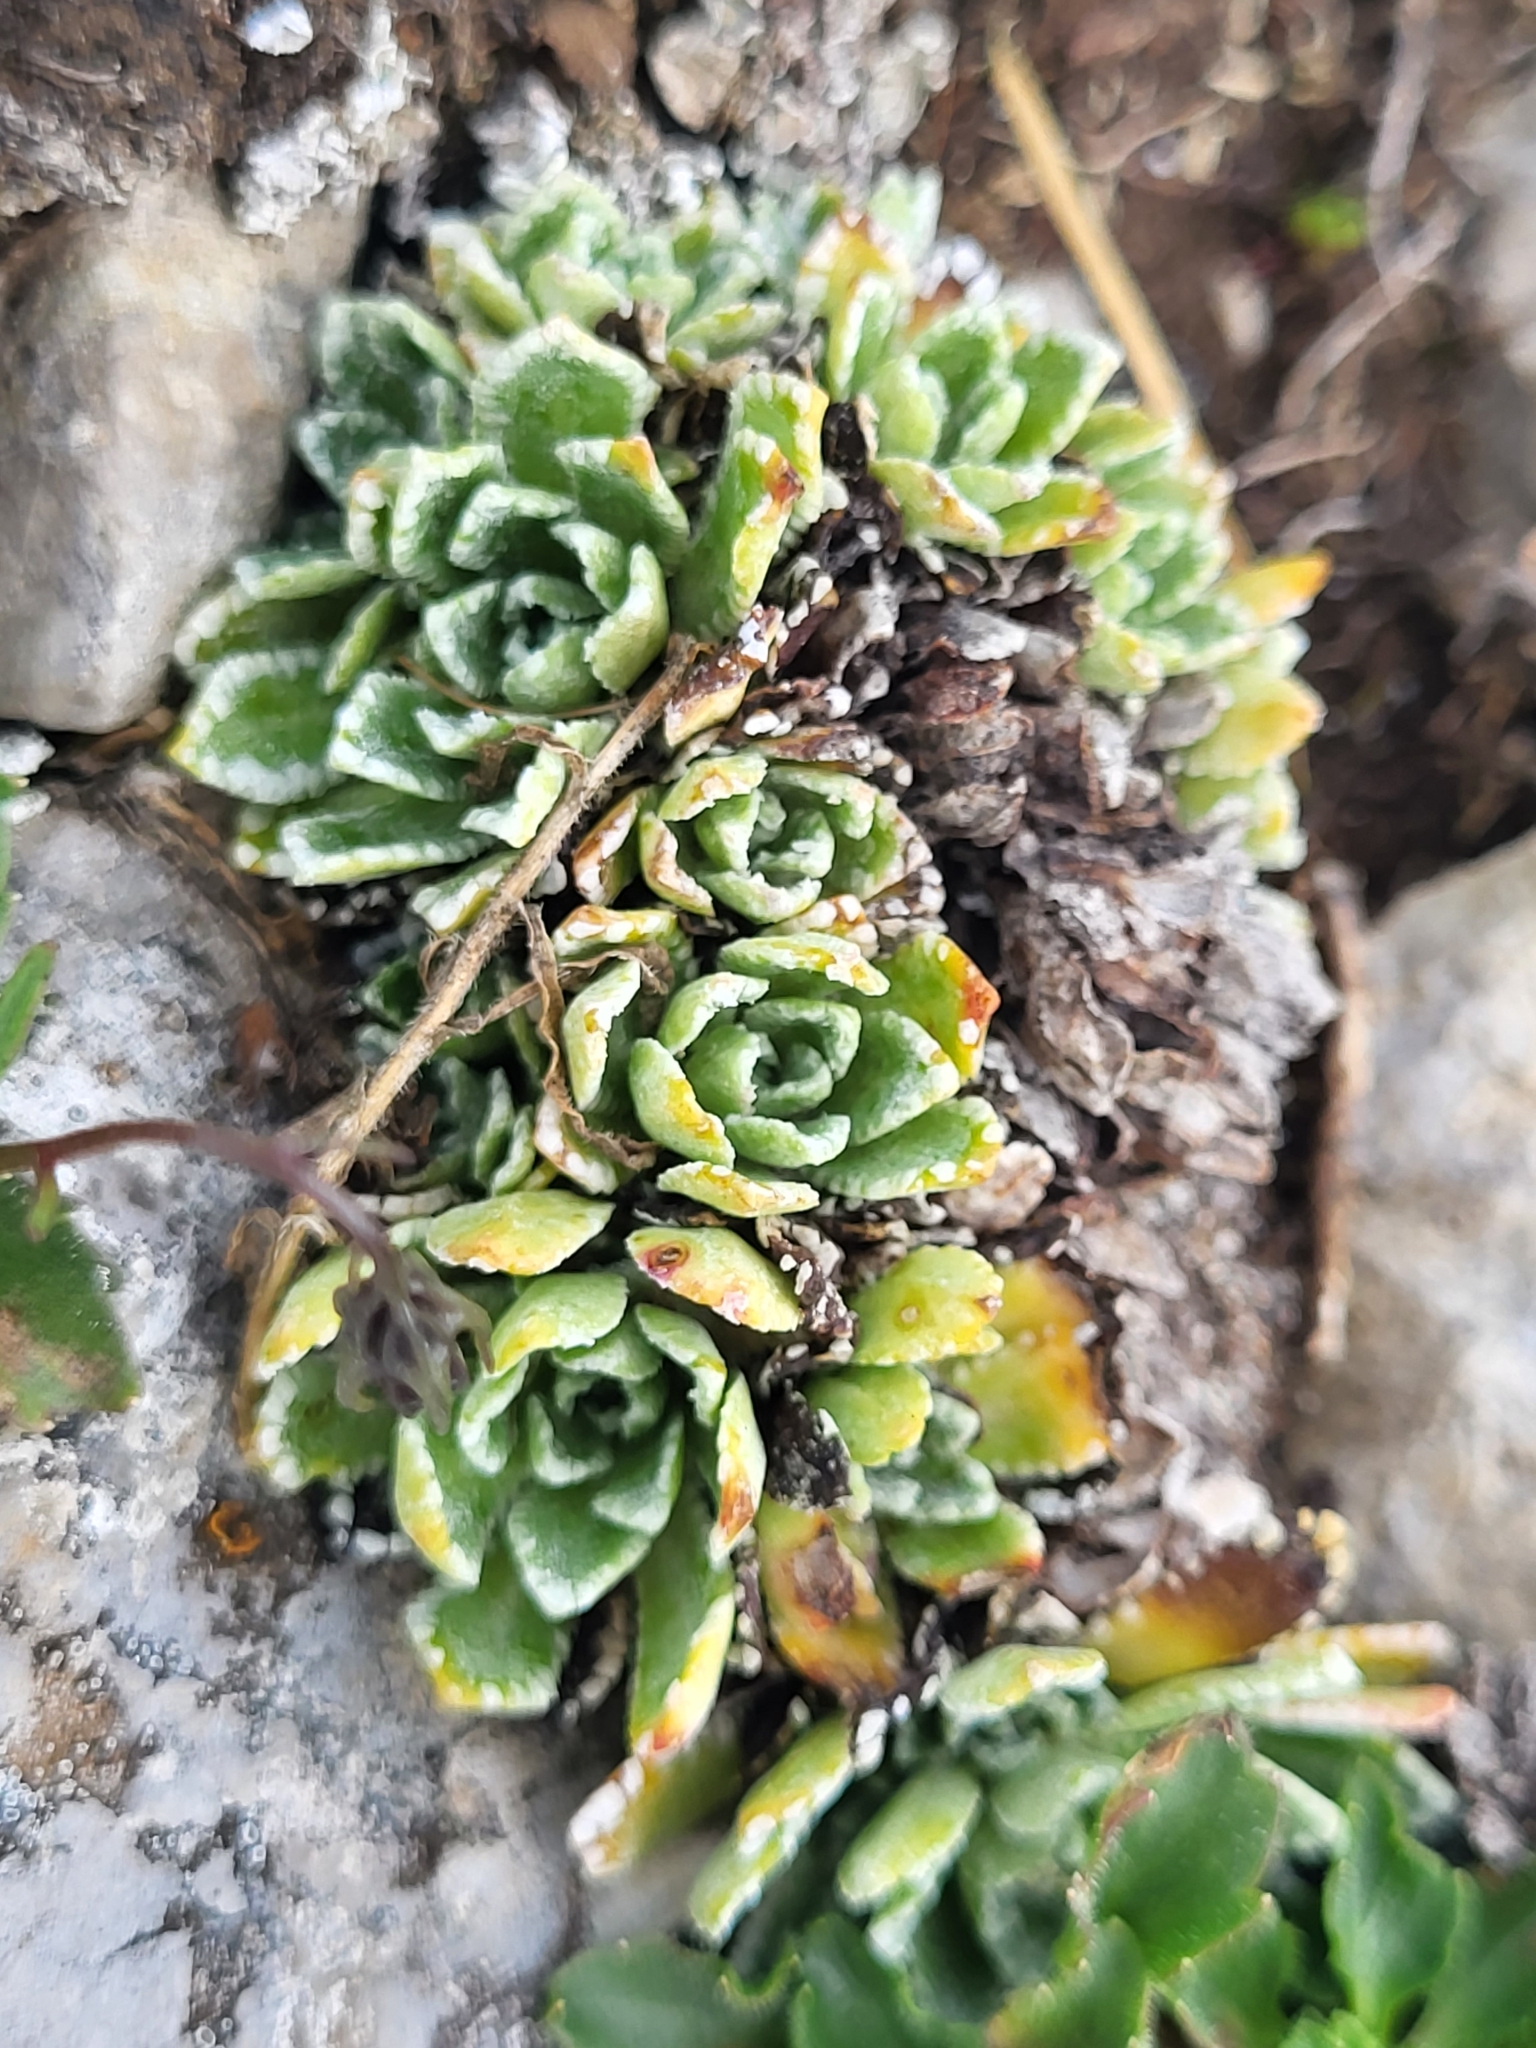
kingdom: Plantae
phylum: Tracheophyta
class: Magnoliopsida
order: Saxifragales
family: Saxifragaceae
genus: Saxifraga
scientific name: Saxifraga portae
